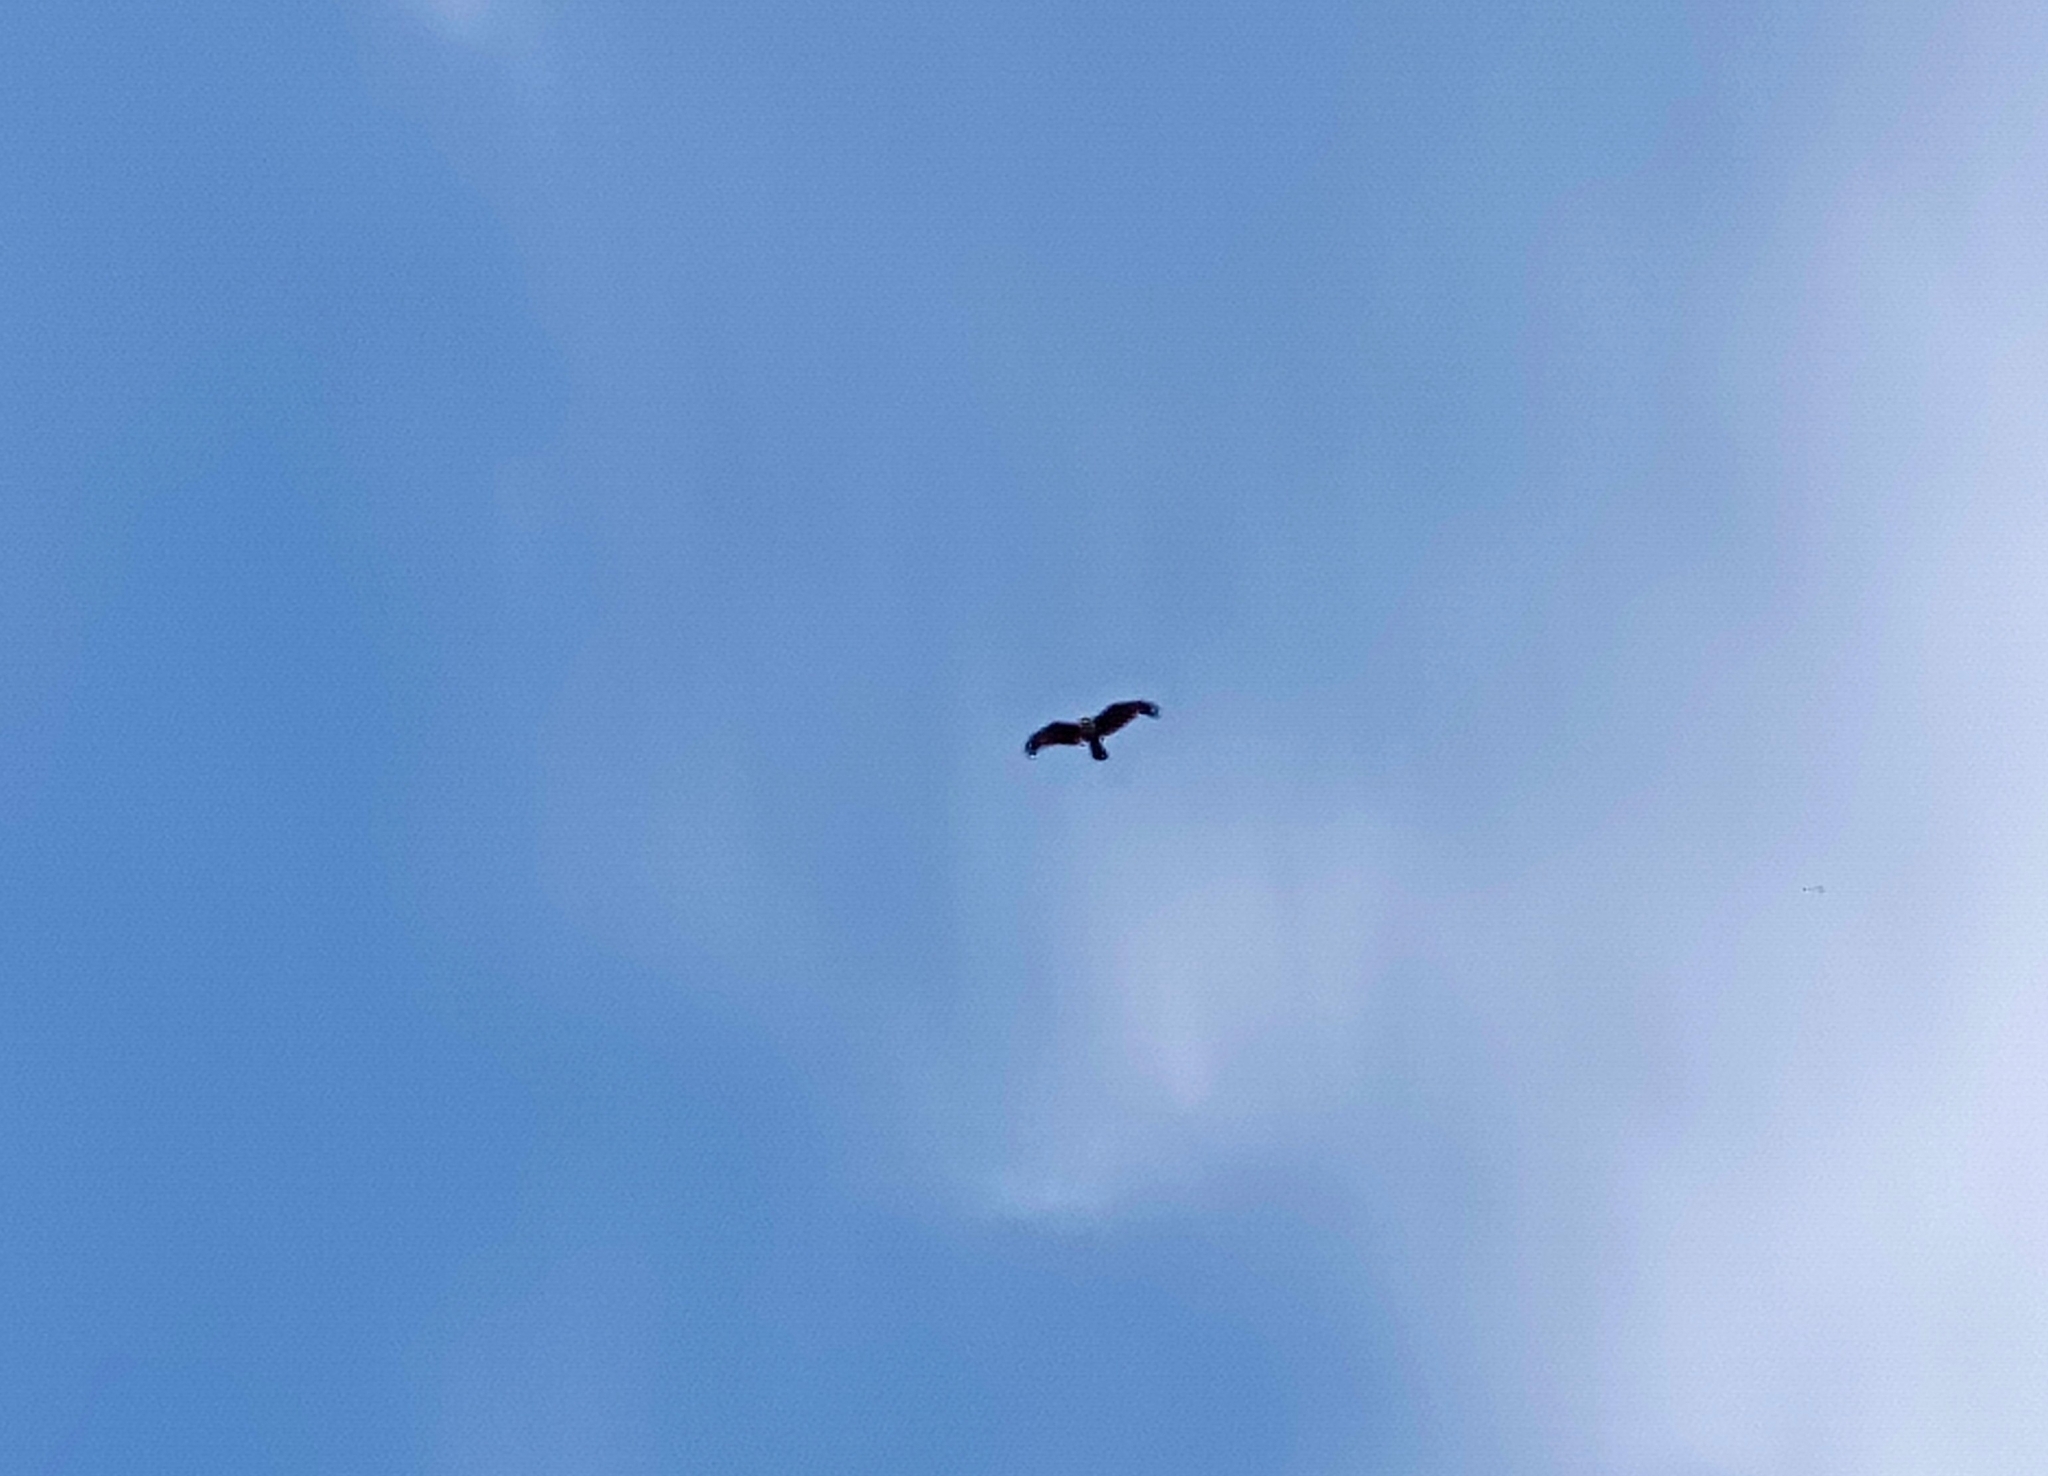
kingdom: Animalia
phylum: Chordata
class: Aves
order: Accipitriformes
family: Accipitridae
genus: Haliastur
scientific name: Haliastur indus
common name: Brahminy kite
